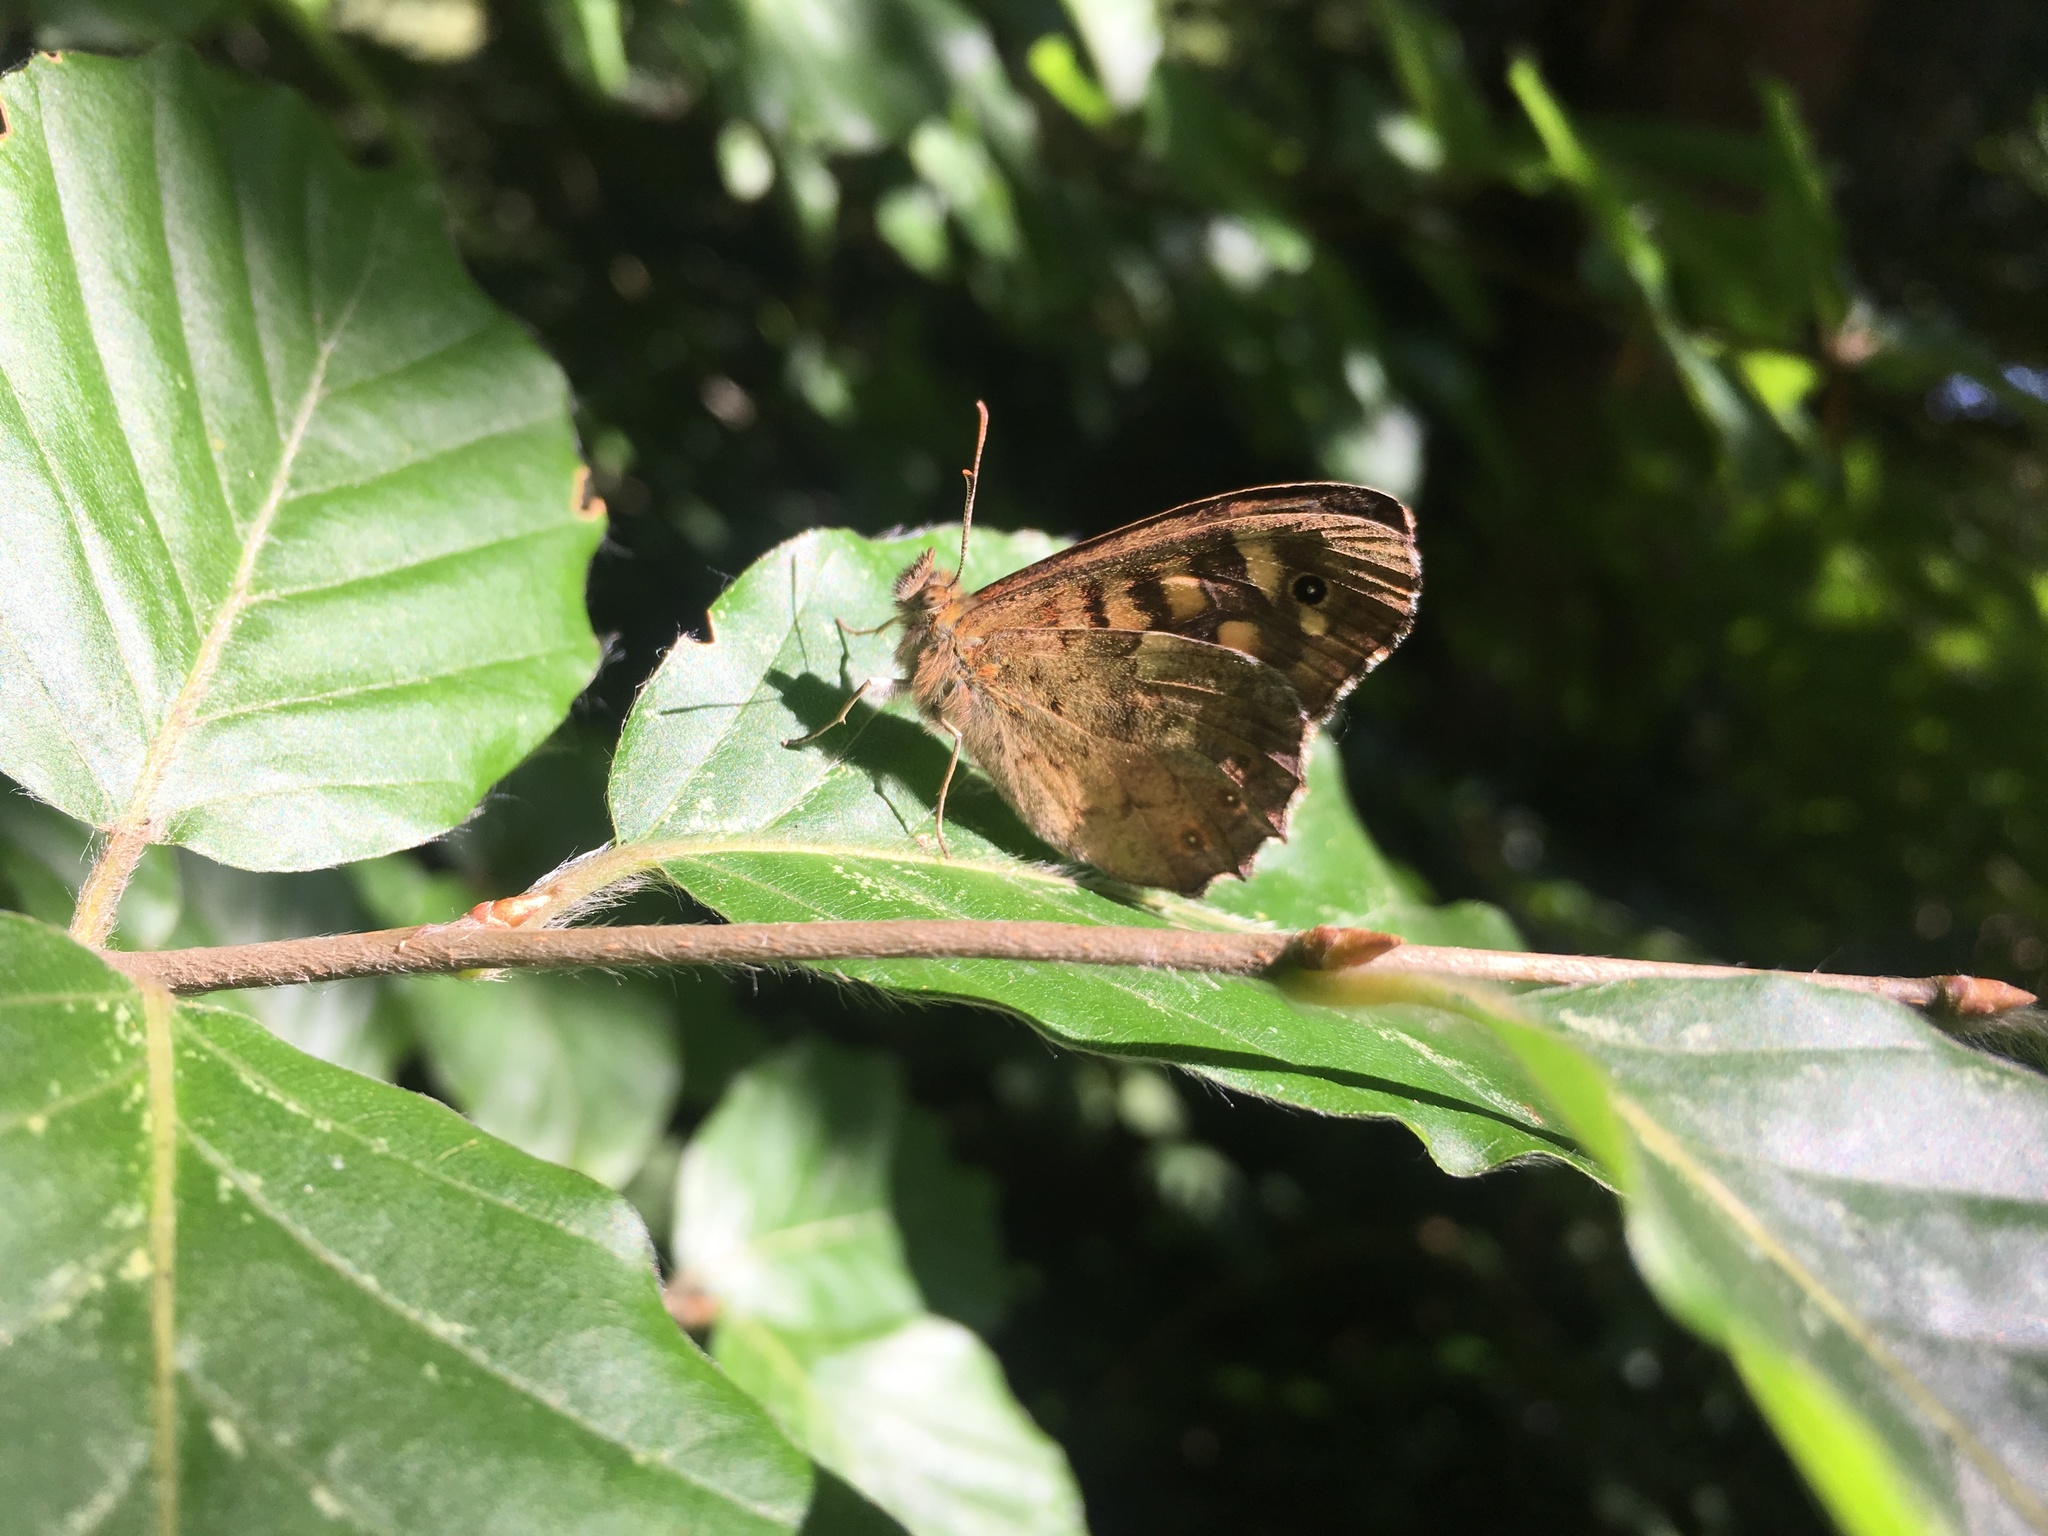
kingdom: Animalia
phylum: Arthropoda
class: Insecta
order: Lepidoptera
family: Nymphalidae
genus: Pararge
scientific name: Pararge aegeria
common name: Speckled wood
